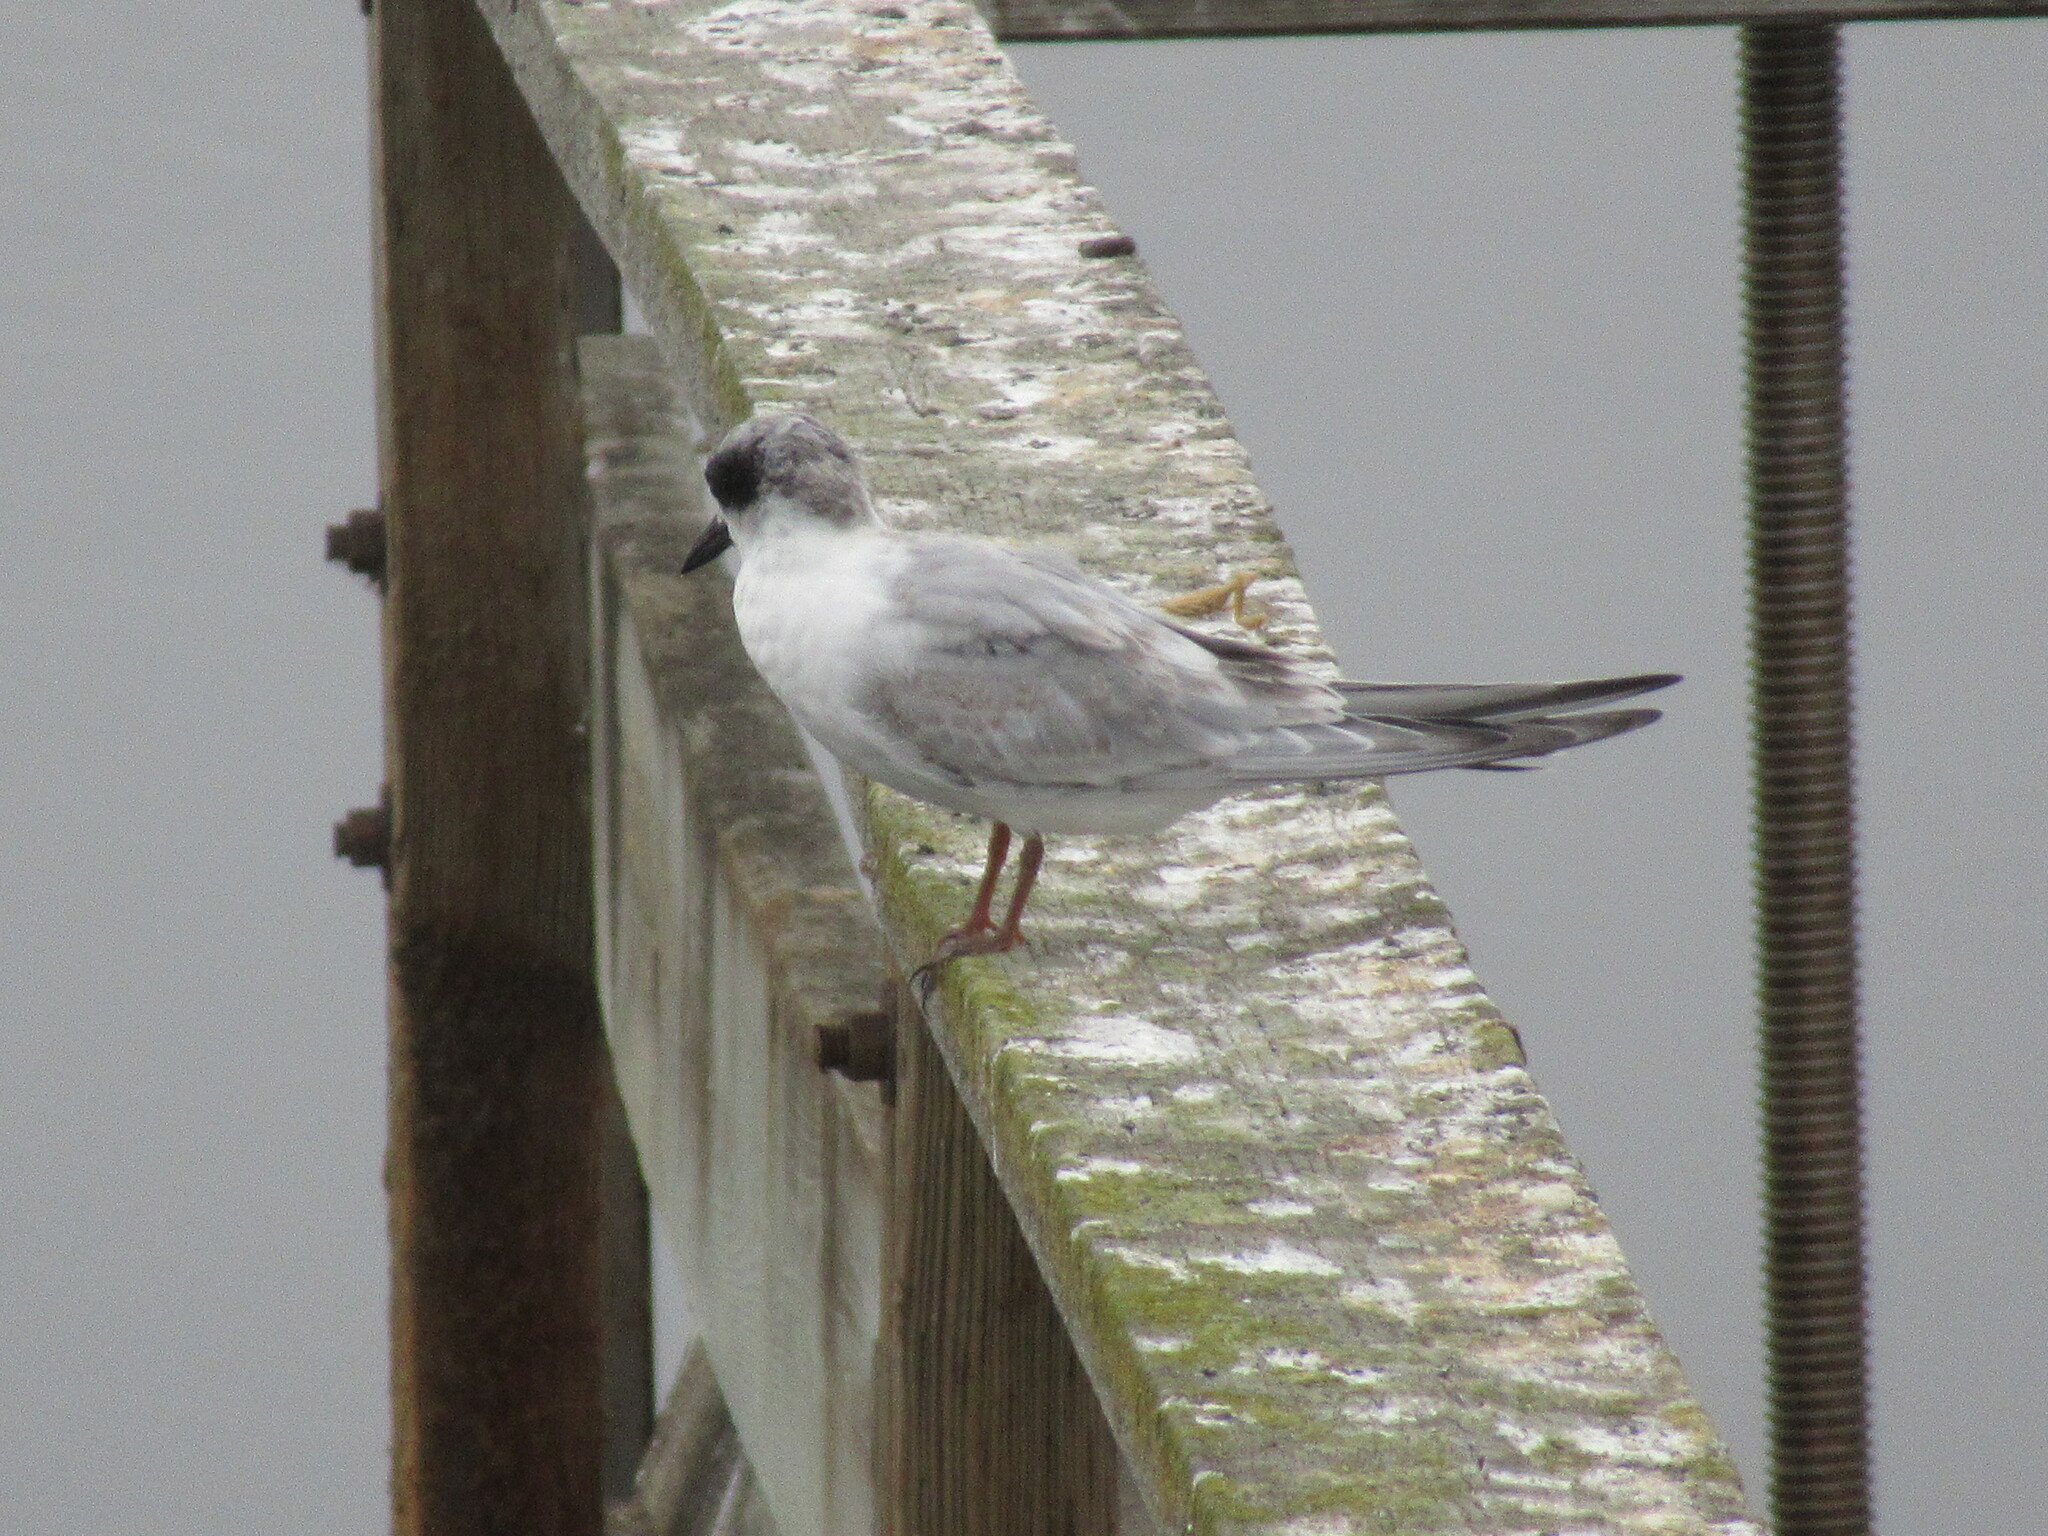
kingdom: Animalia
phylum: Chordata
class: Aves
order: Charadriiformes
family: Laridae
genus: Sterna
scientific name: Sterna forsteri
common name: Forster's tern
